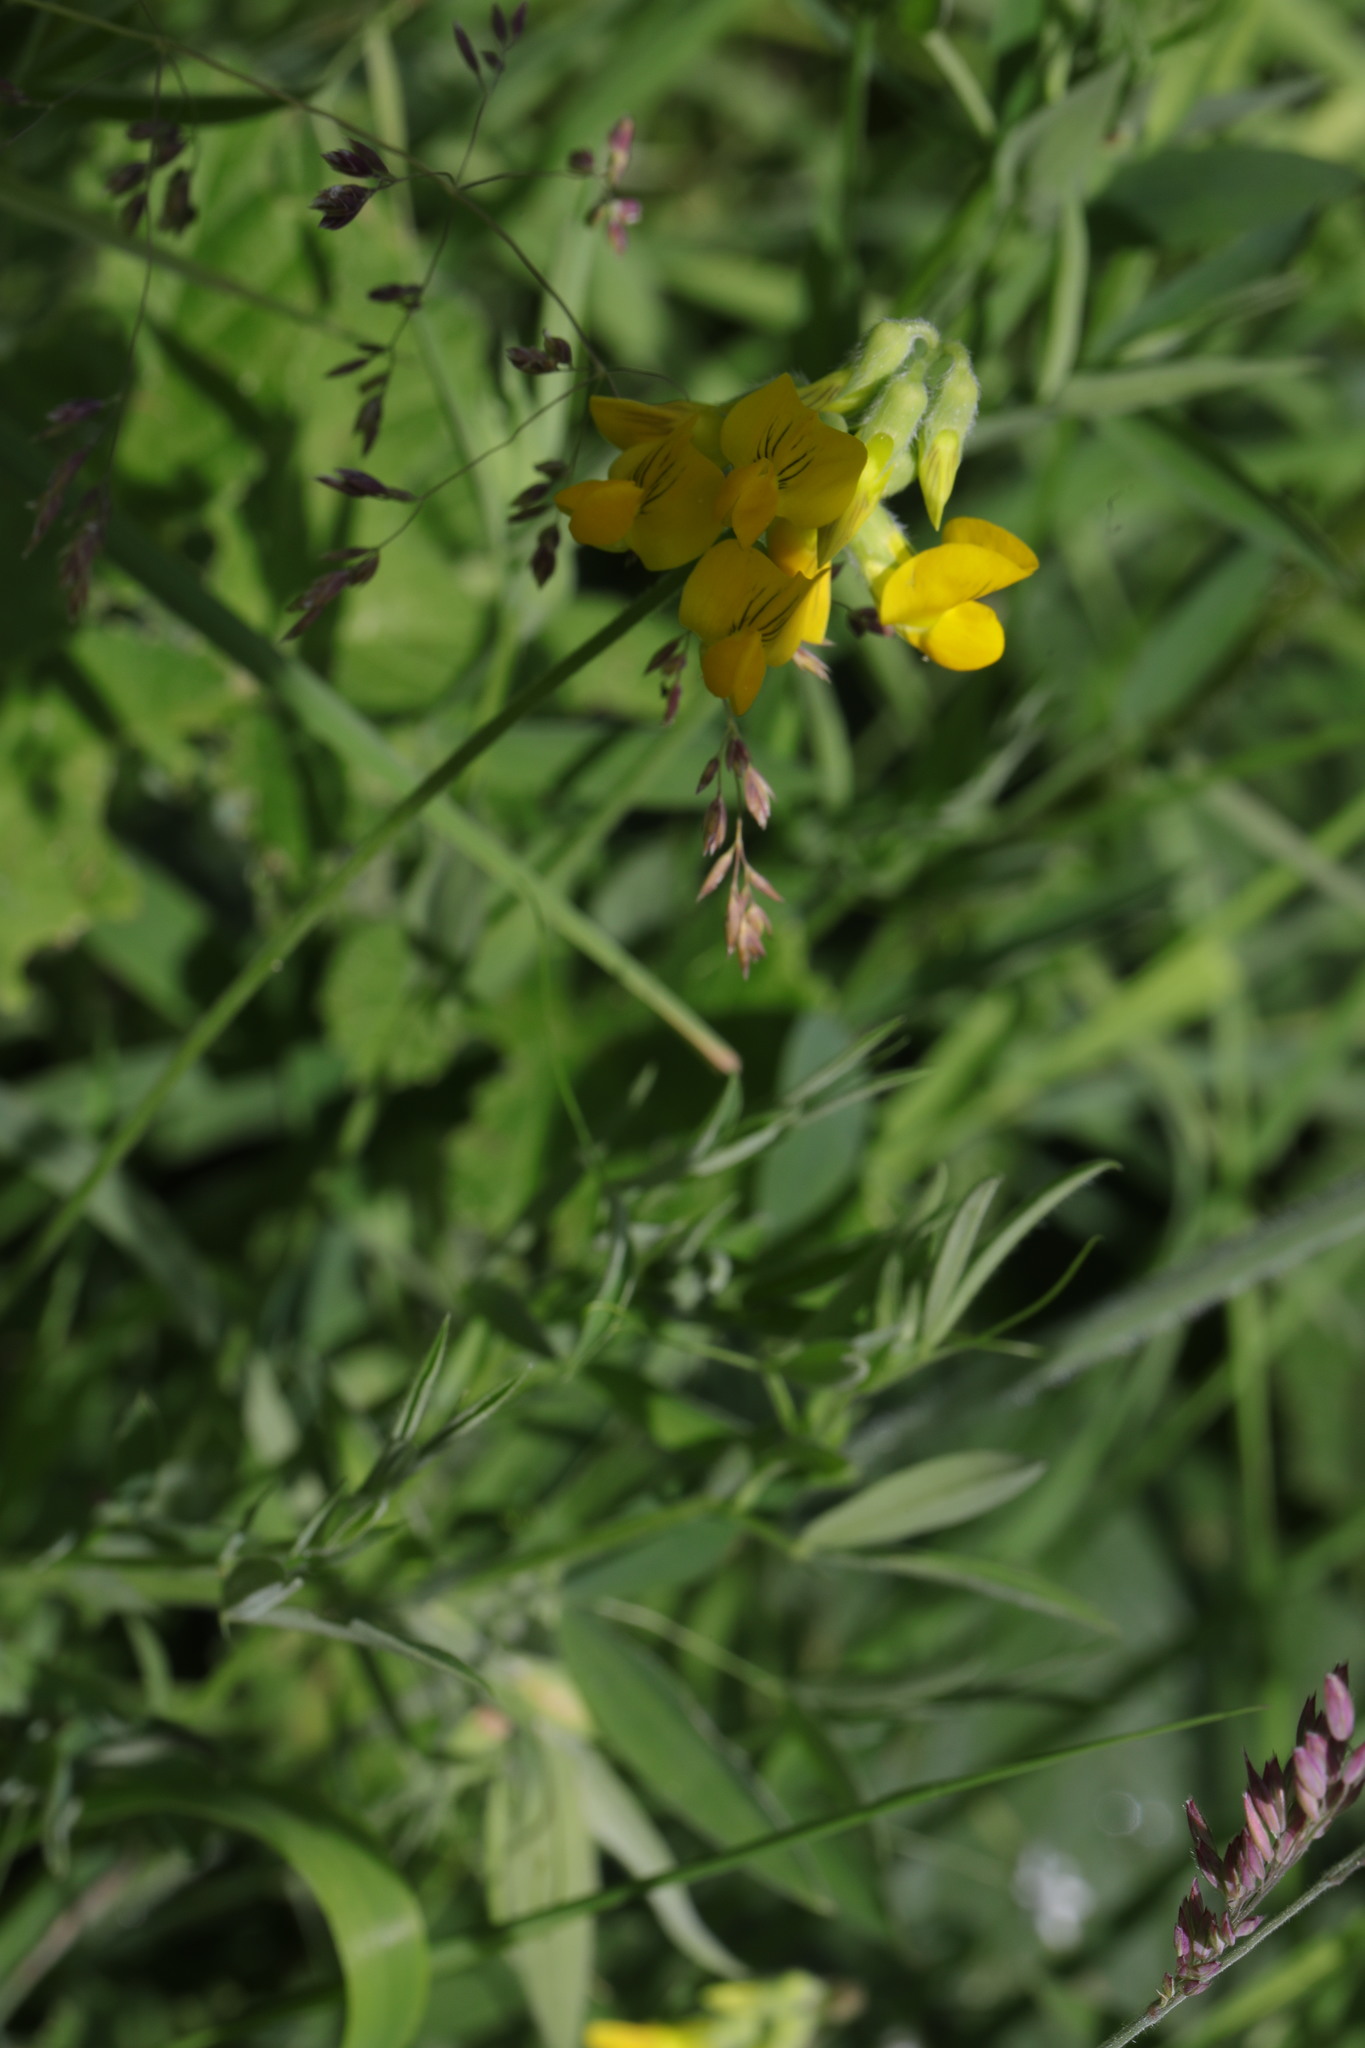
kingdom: Plantae
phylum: Tracheophyta
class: Magnoliopsida
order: Fabales
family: Fabaceae
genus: Lathyrus
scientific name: Lathyrus pratensis
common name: Meadow vetchling
